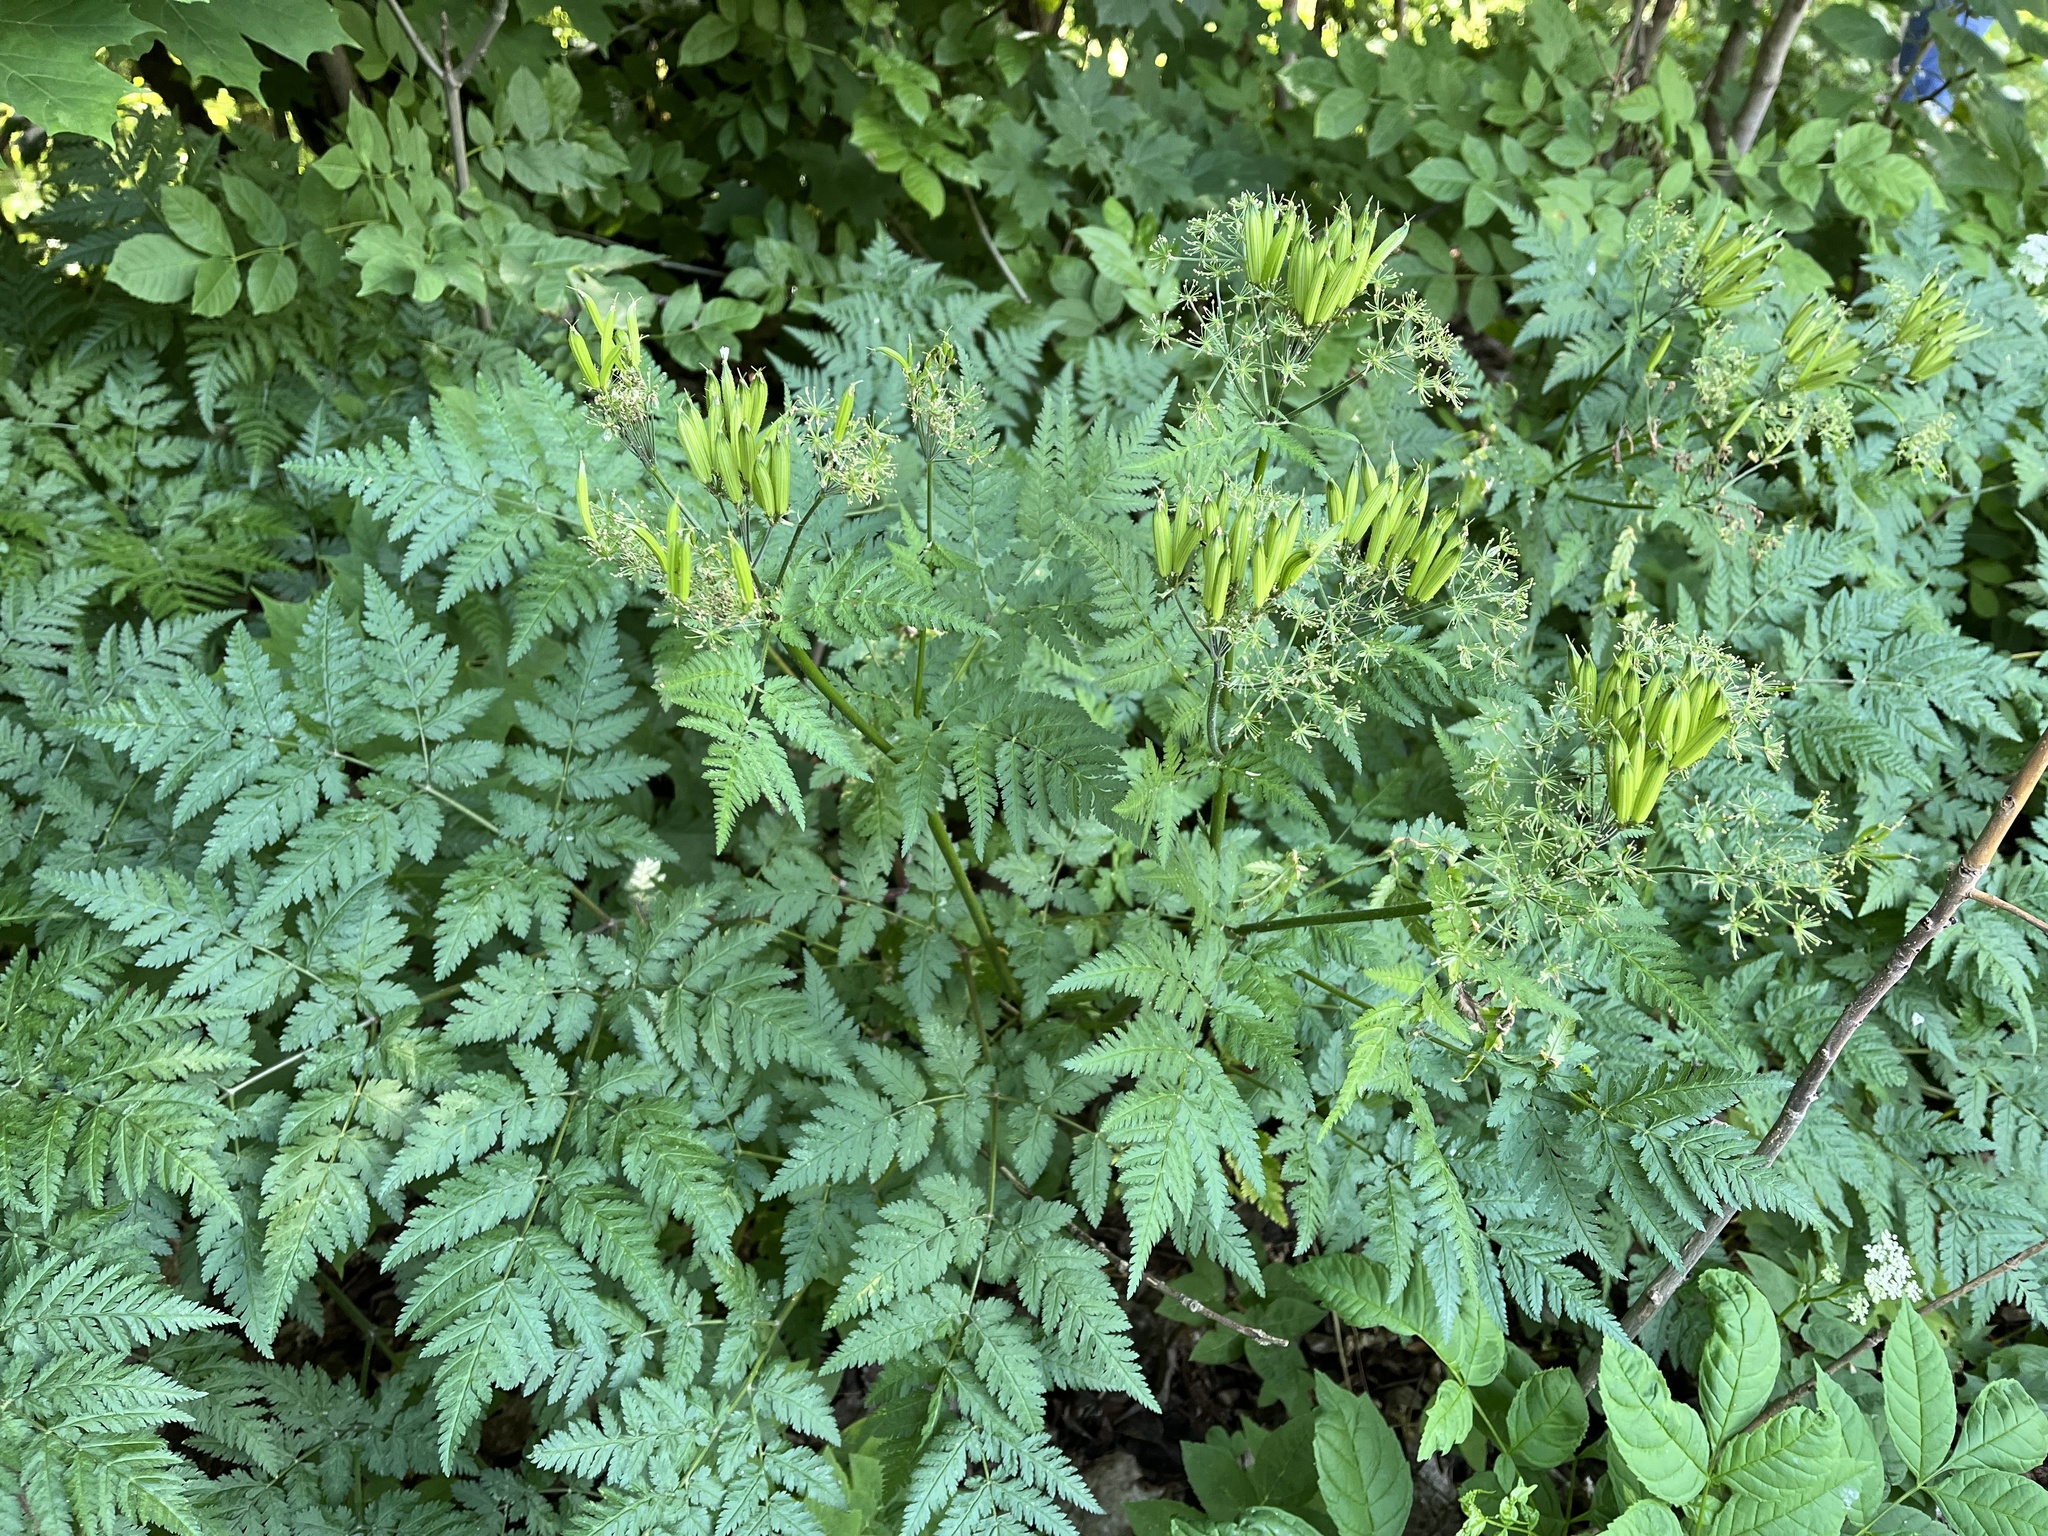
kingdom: Plantae
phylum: Tracheophyta
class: Magnoliopsida
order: Apiales
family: Apiaceae
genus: Myrrhis
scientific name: Myrrhis odorata
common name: Sweet cicely
